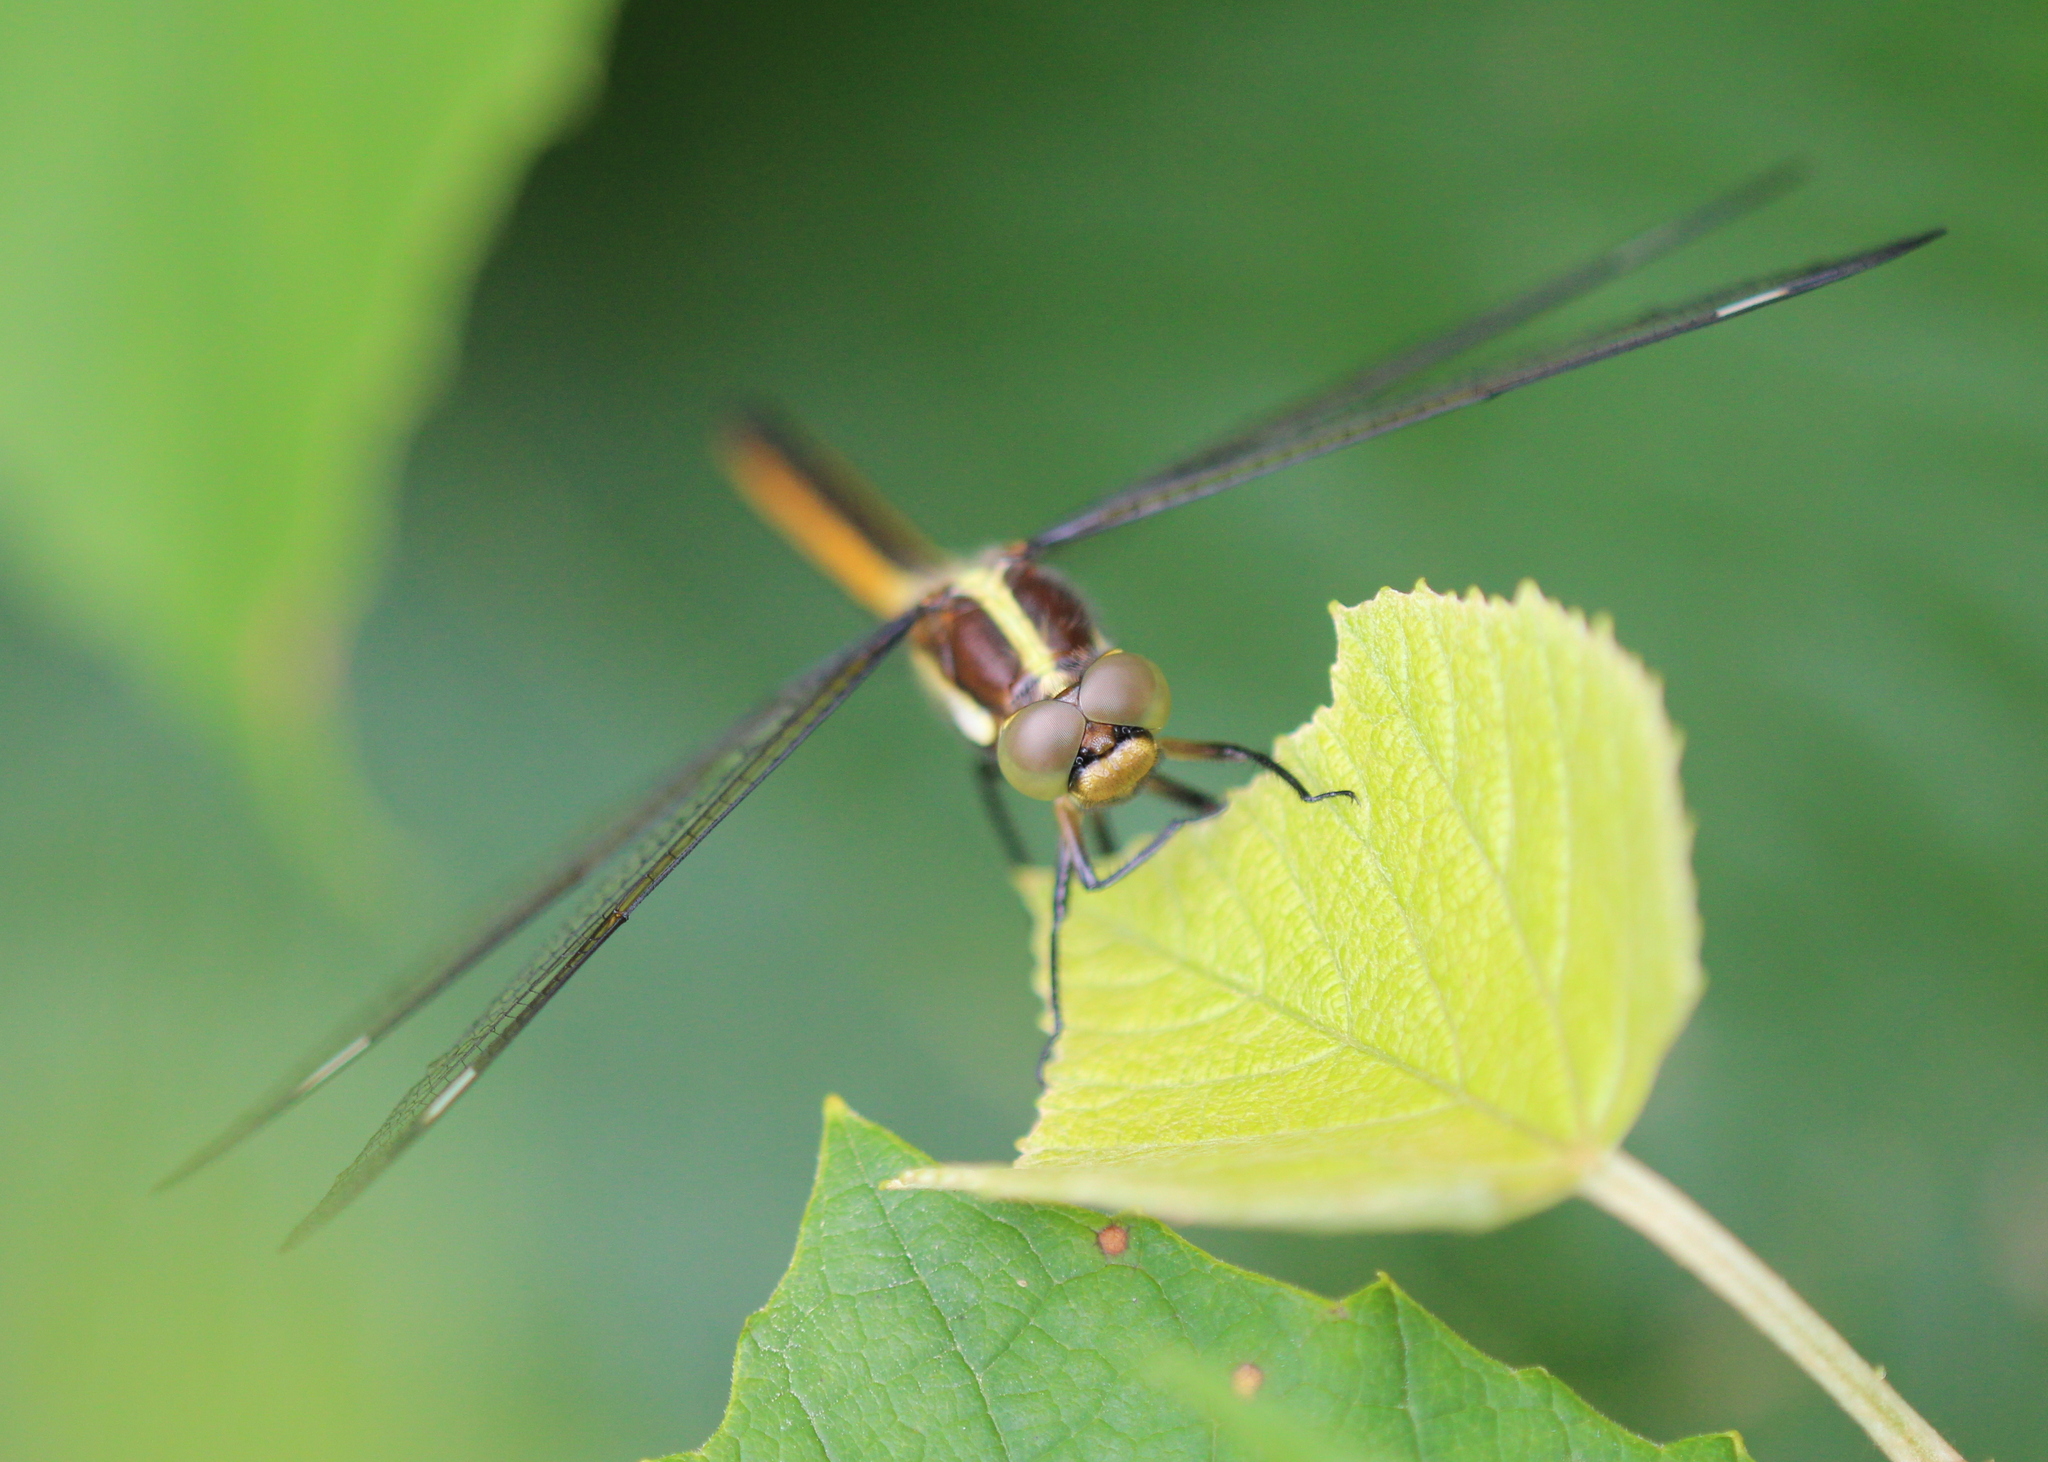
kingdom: Animalia
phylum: Arthropoda
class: Insecta
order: Odonata
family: Libellulidae
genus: Libellula
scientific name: Libellula cyanea
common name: Spangled skimmer
